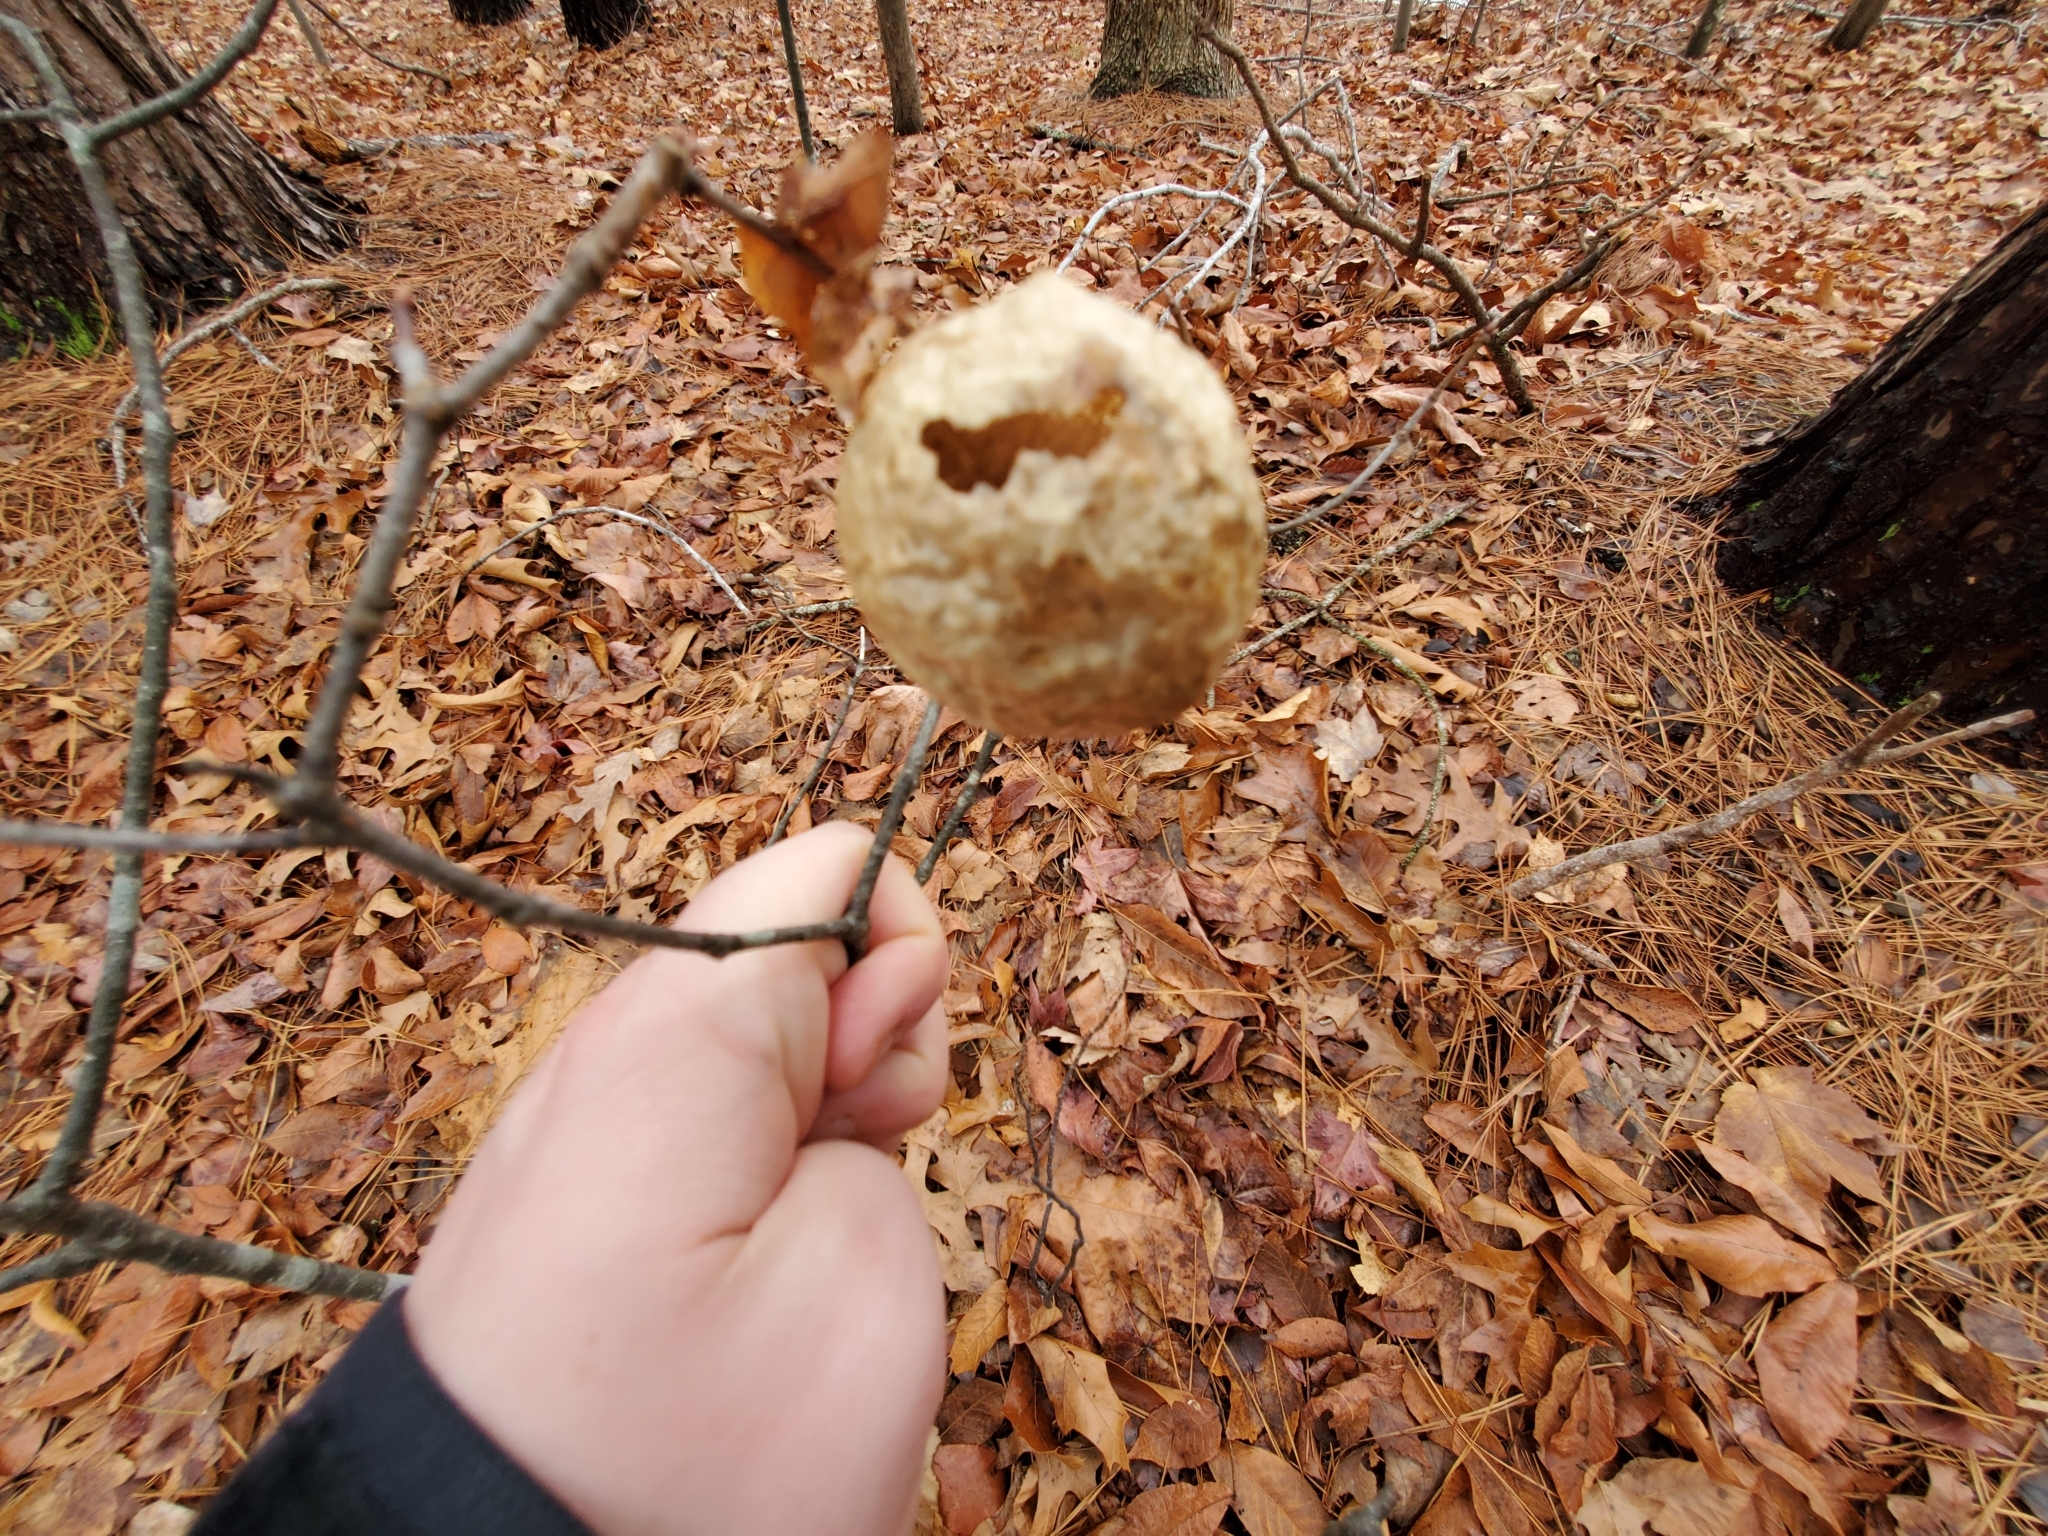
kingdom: Animalia
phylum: Arthropoda
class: Insecta
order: Hymenoptera
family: Cynipidae
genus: Amphibolips
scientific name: Amphibolips
